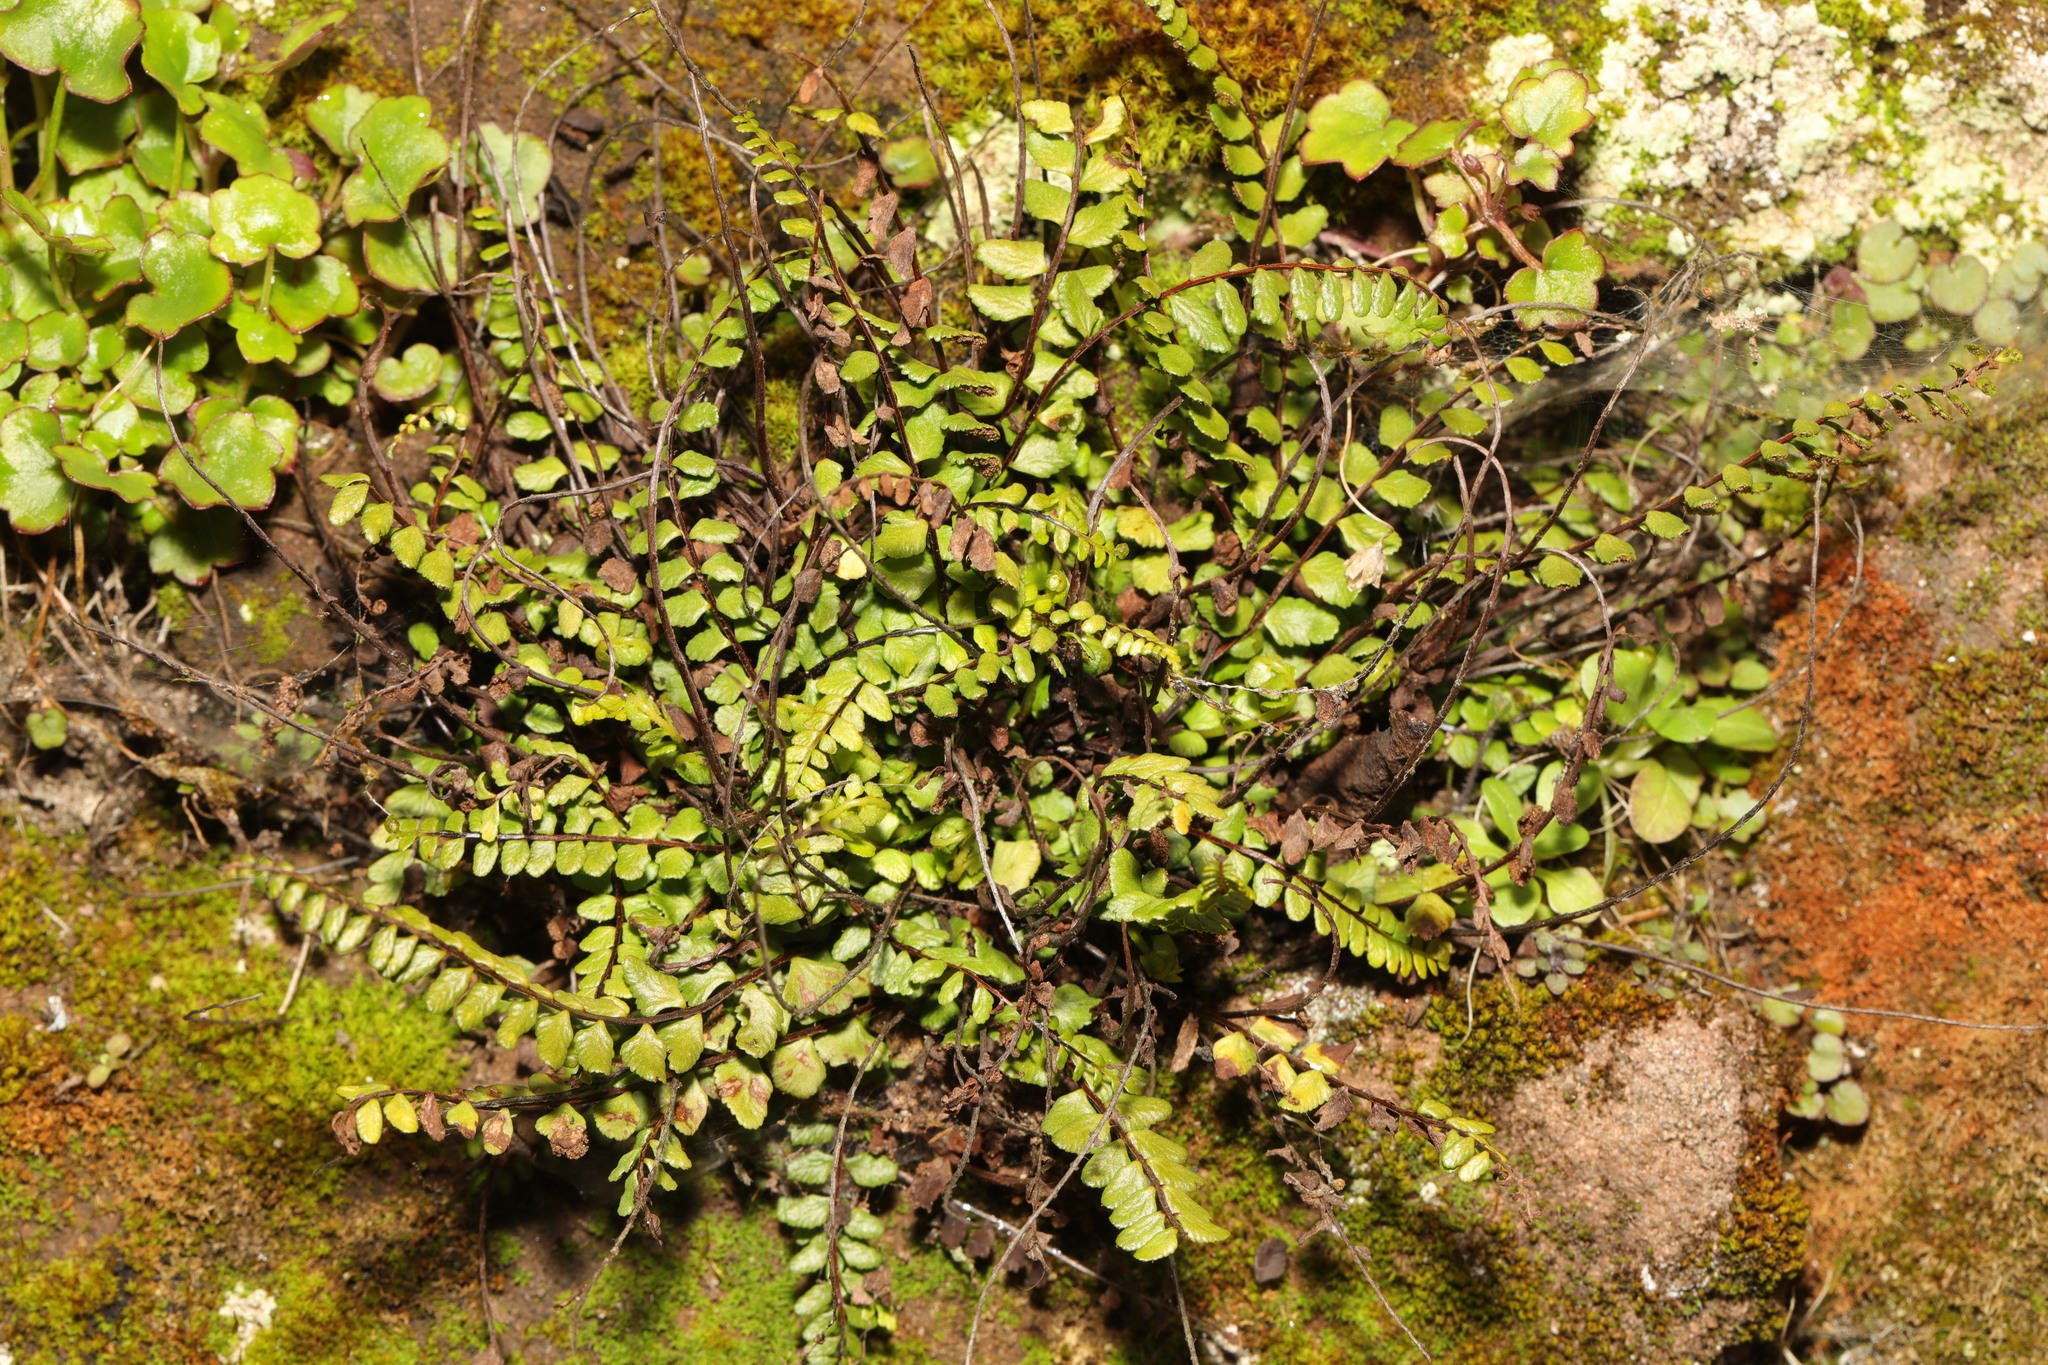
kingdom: Plantae
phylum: Tracheophyta
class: Polypodiopsida
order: Polypodiales
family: Aspleniaceae
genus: Asplenium
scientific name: Asplenium trichomanes
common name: Maidenhair spleenwort
